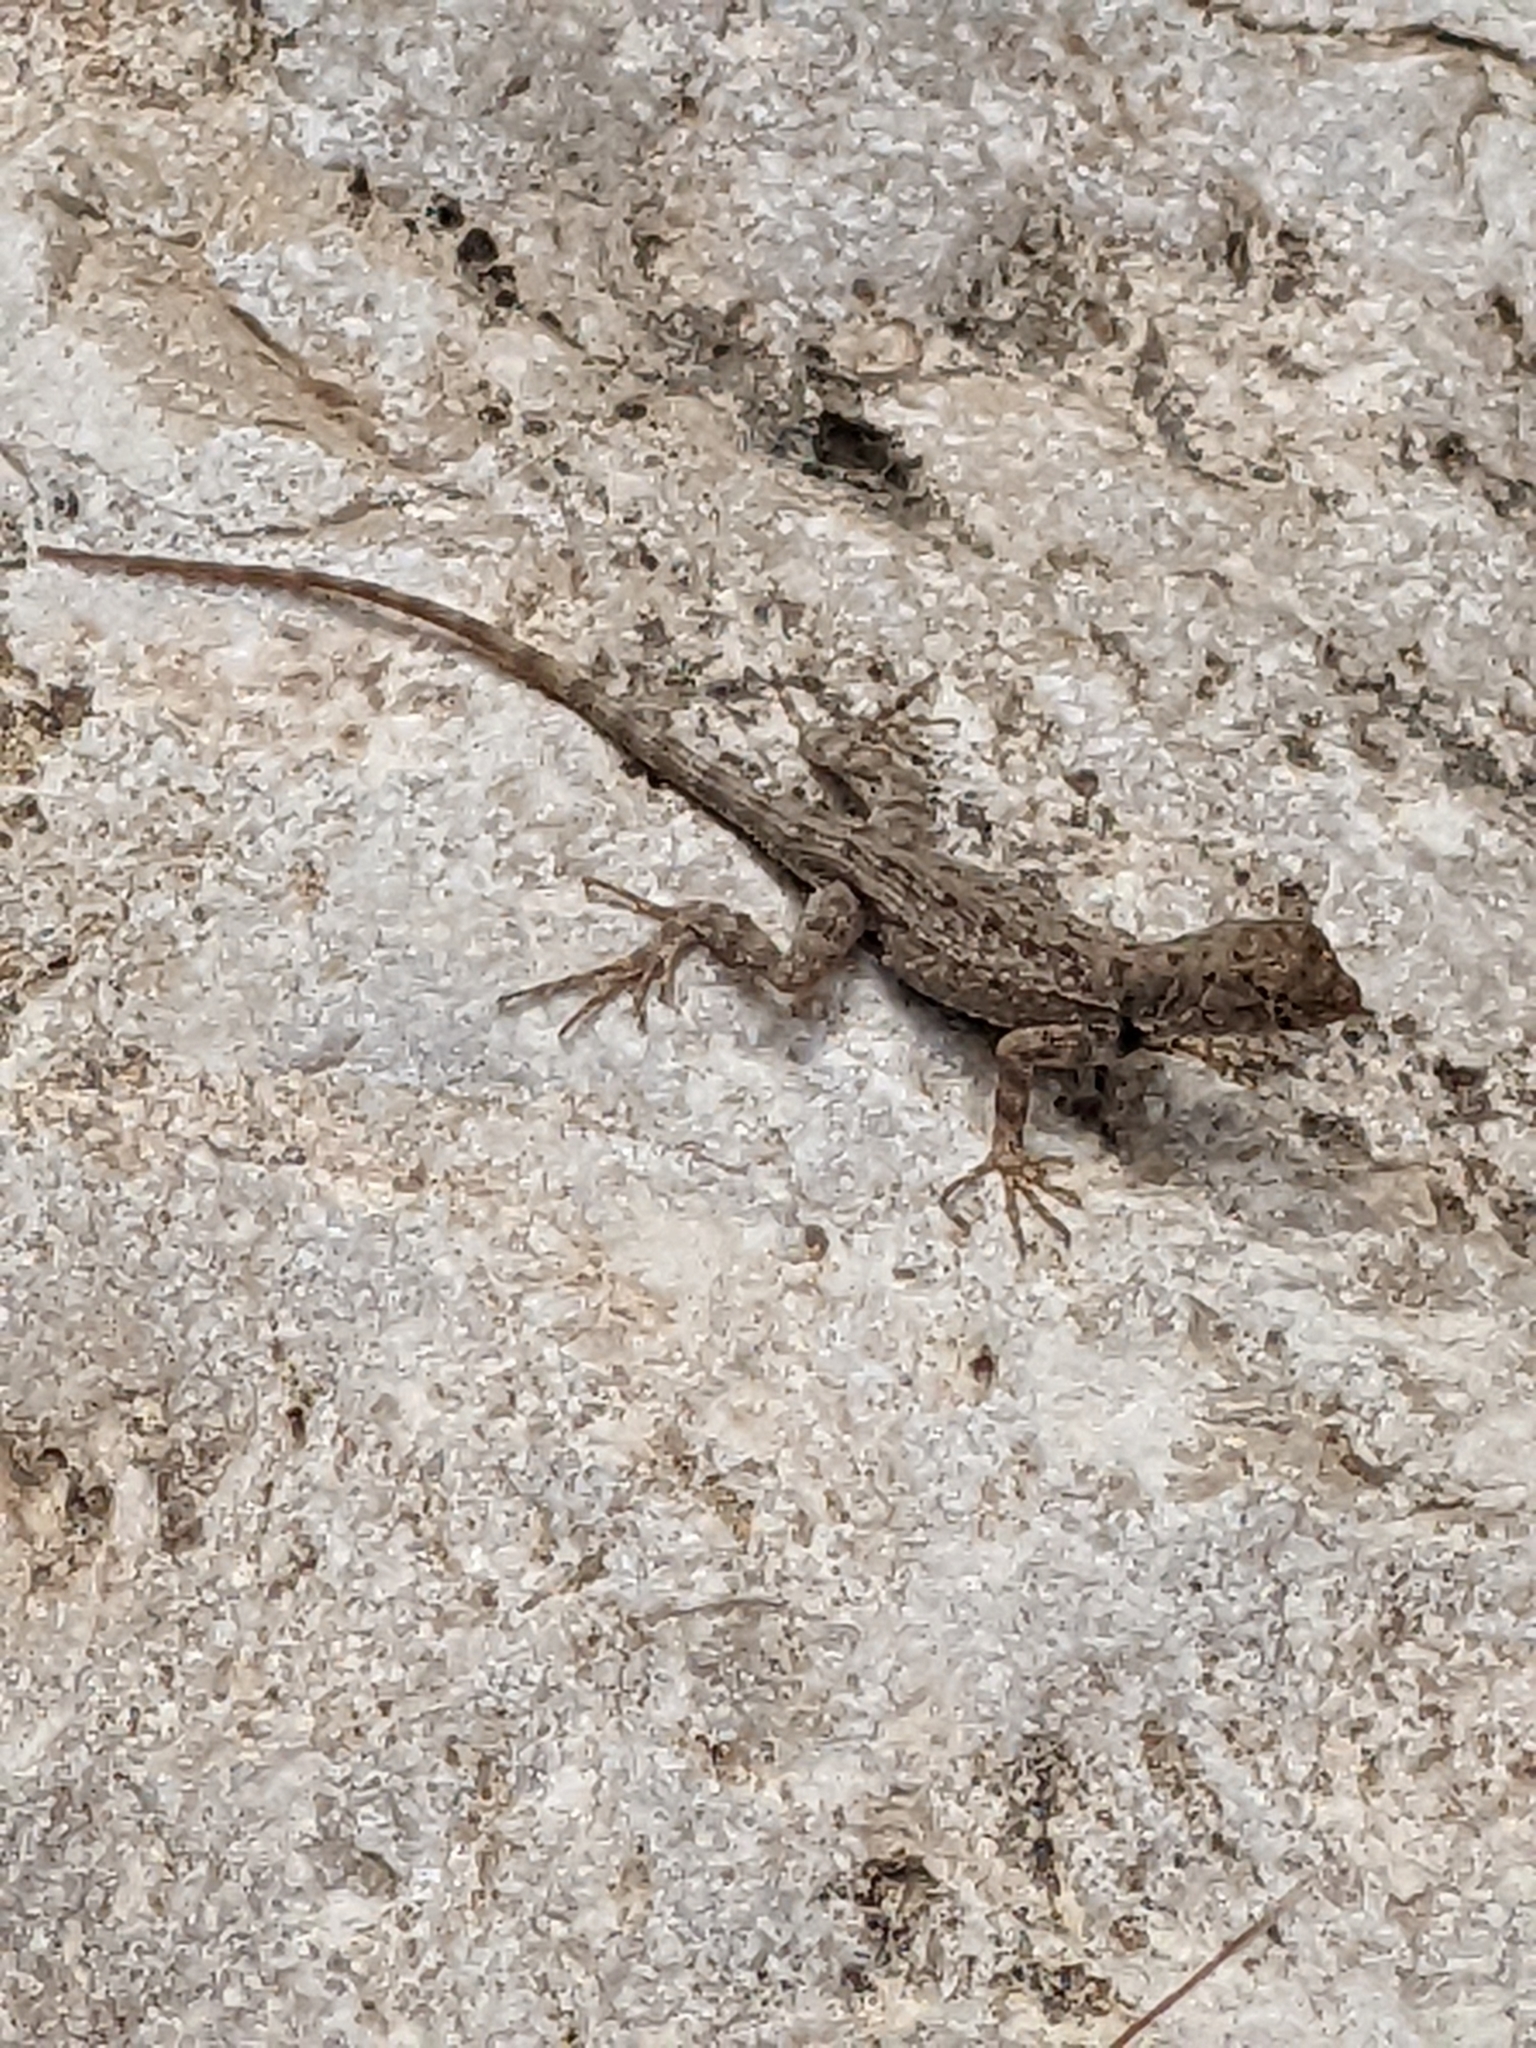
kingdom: Animalia
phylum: Chordata
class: Squamata
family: Phrynosomatidae
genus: Sceloporus
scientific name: Sceloporus merriami
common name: Canyon lizard
